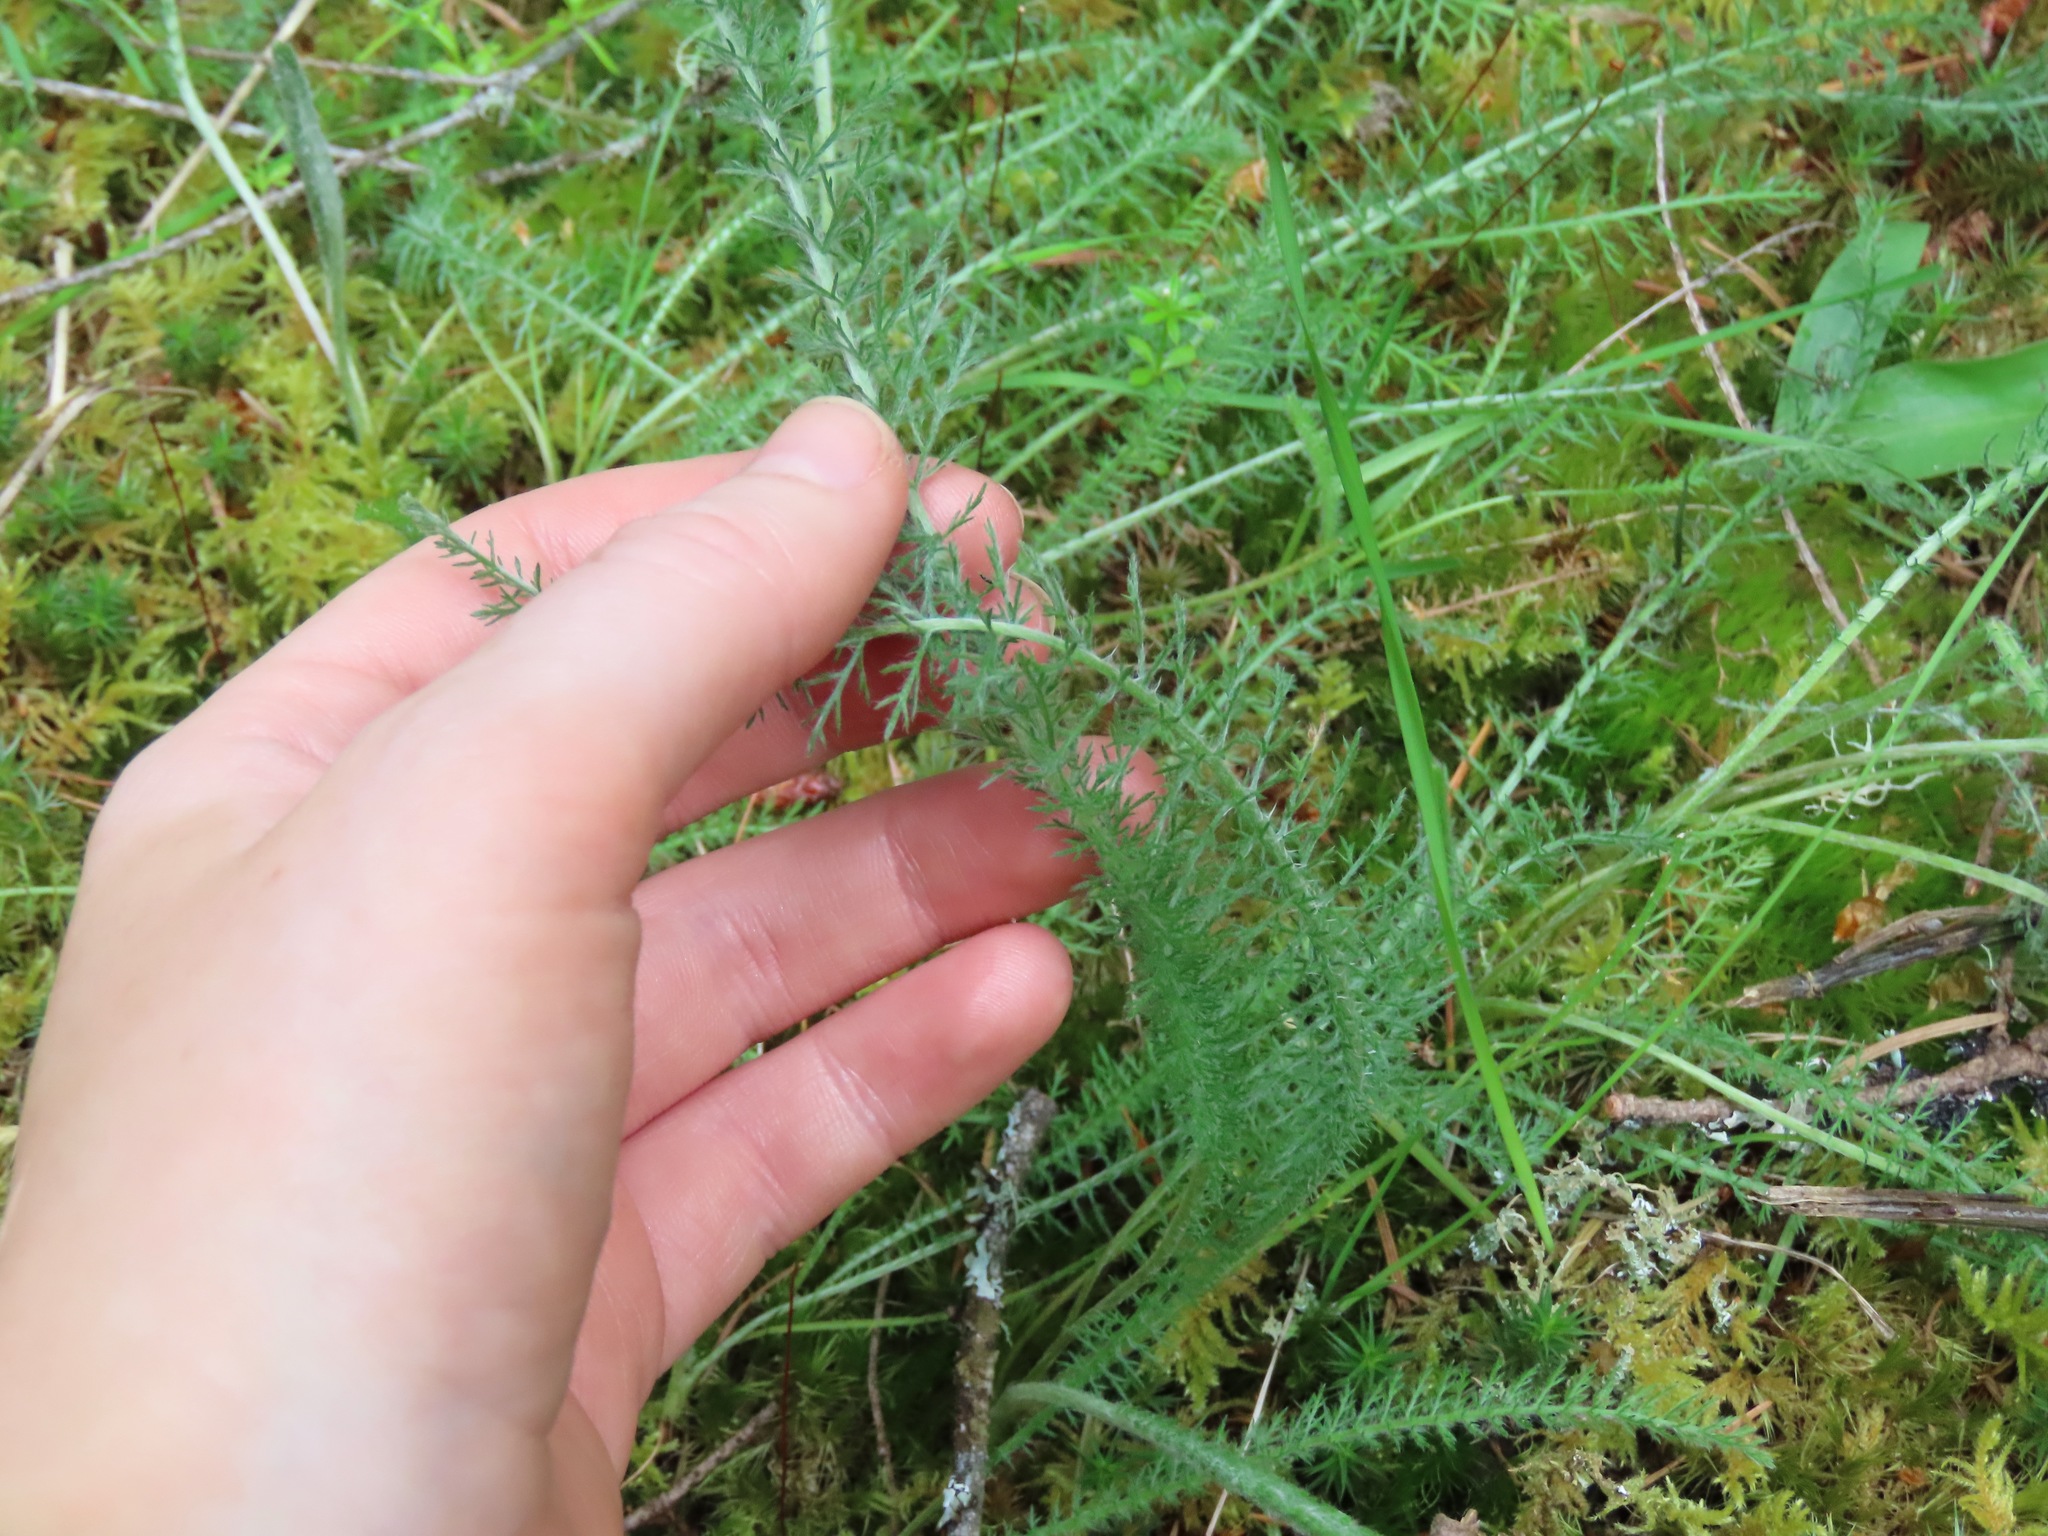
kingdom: Plantae
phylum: Tracheophyta
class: Magnoliopsida
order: Asterales
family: Asteraceae
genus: Achillea
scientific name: Achillea millefolium
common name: Yarrow
